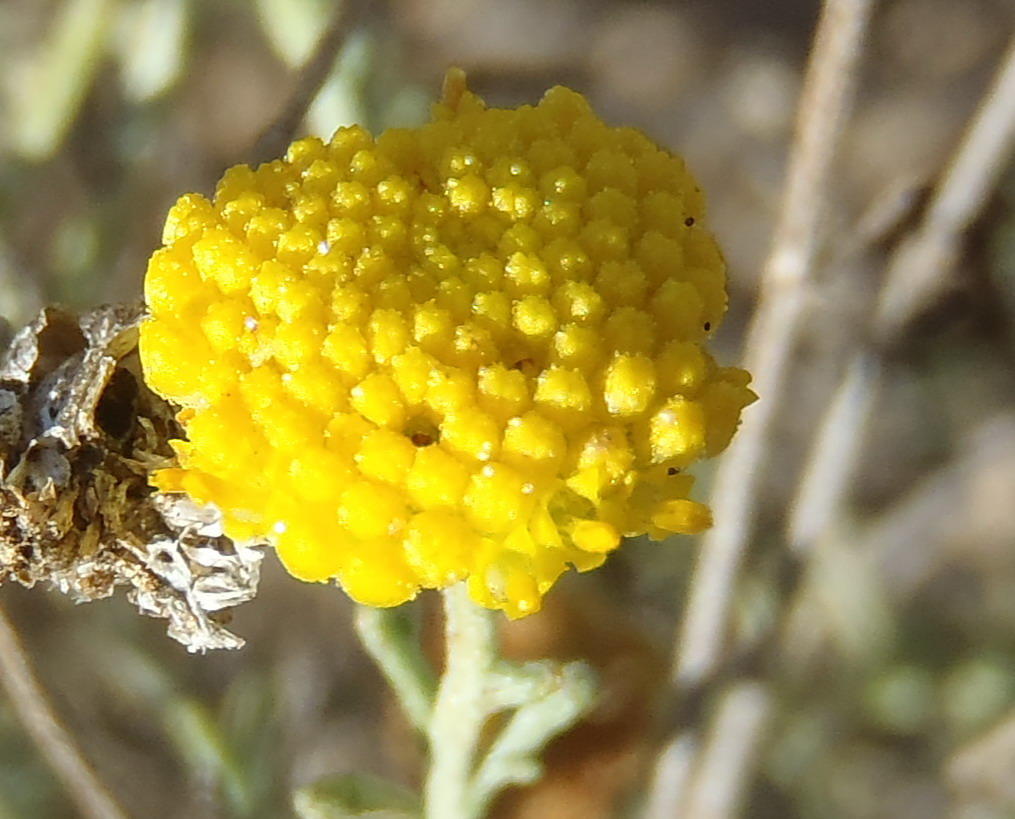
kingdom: Plantae
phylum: Tracheophyta
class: Magnoliopsida
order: Asterales
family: Asteraceae
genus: Pentzia
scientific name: Pentzia incana
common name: African sheepbush
